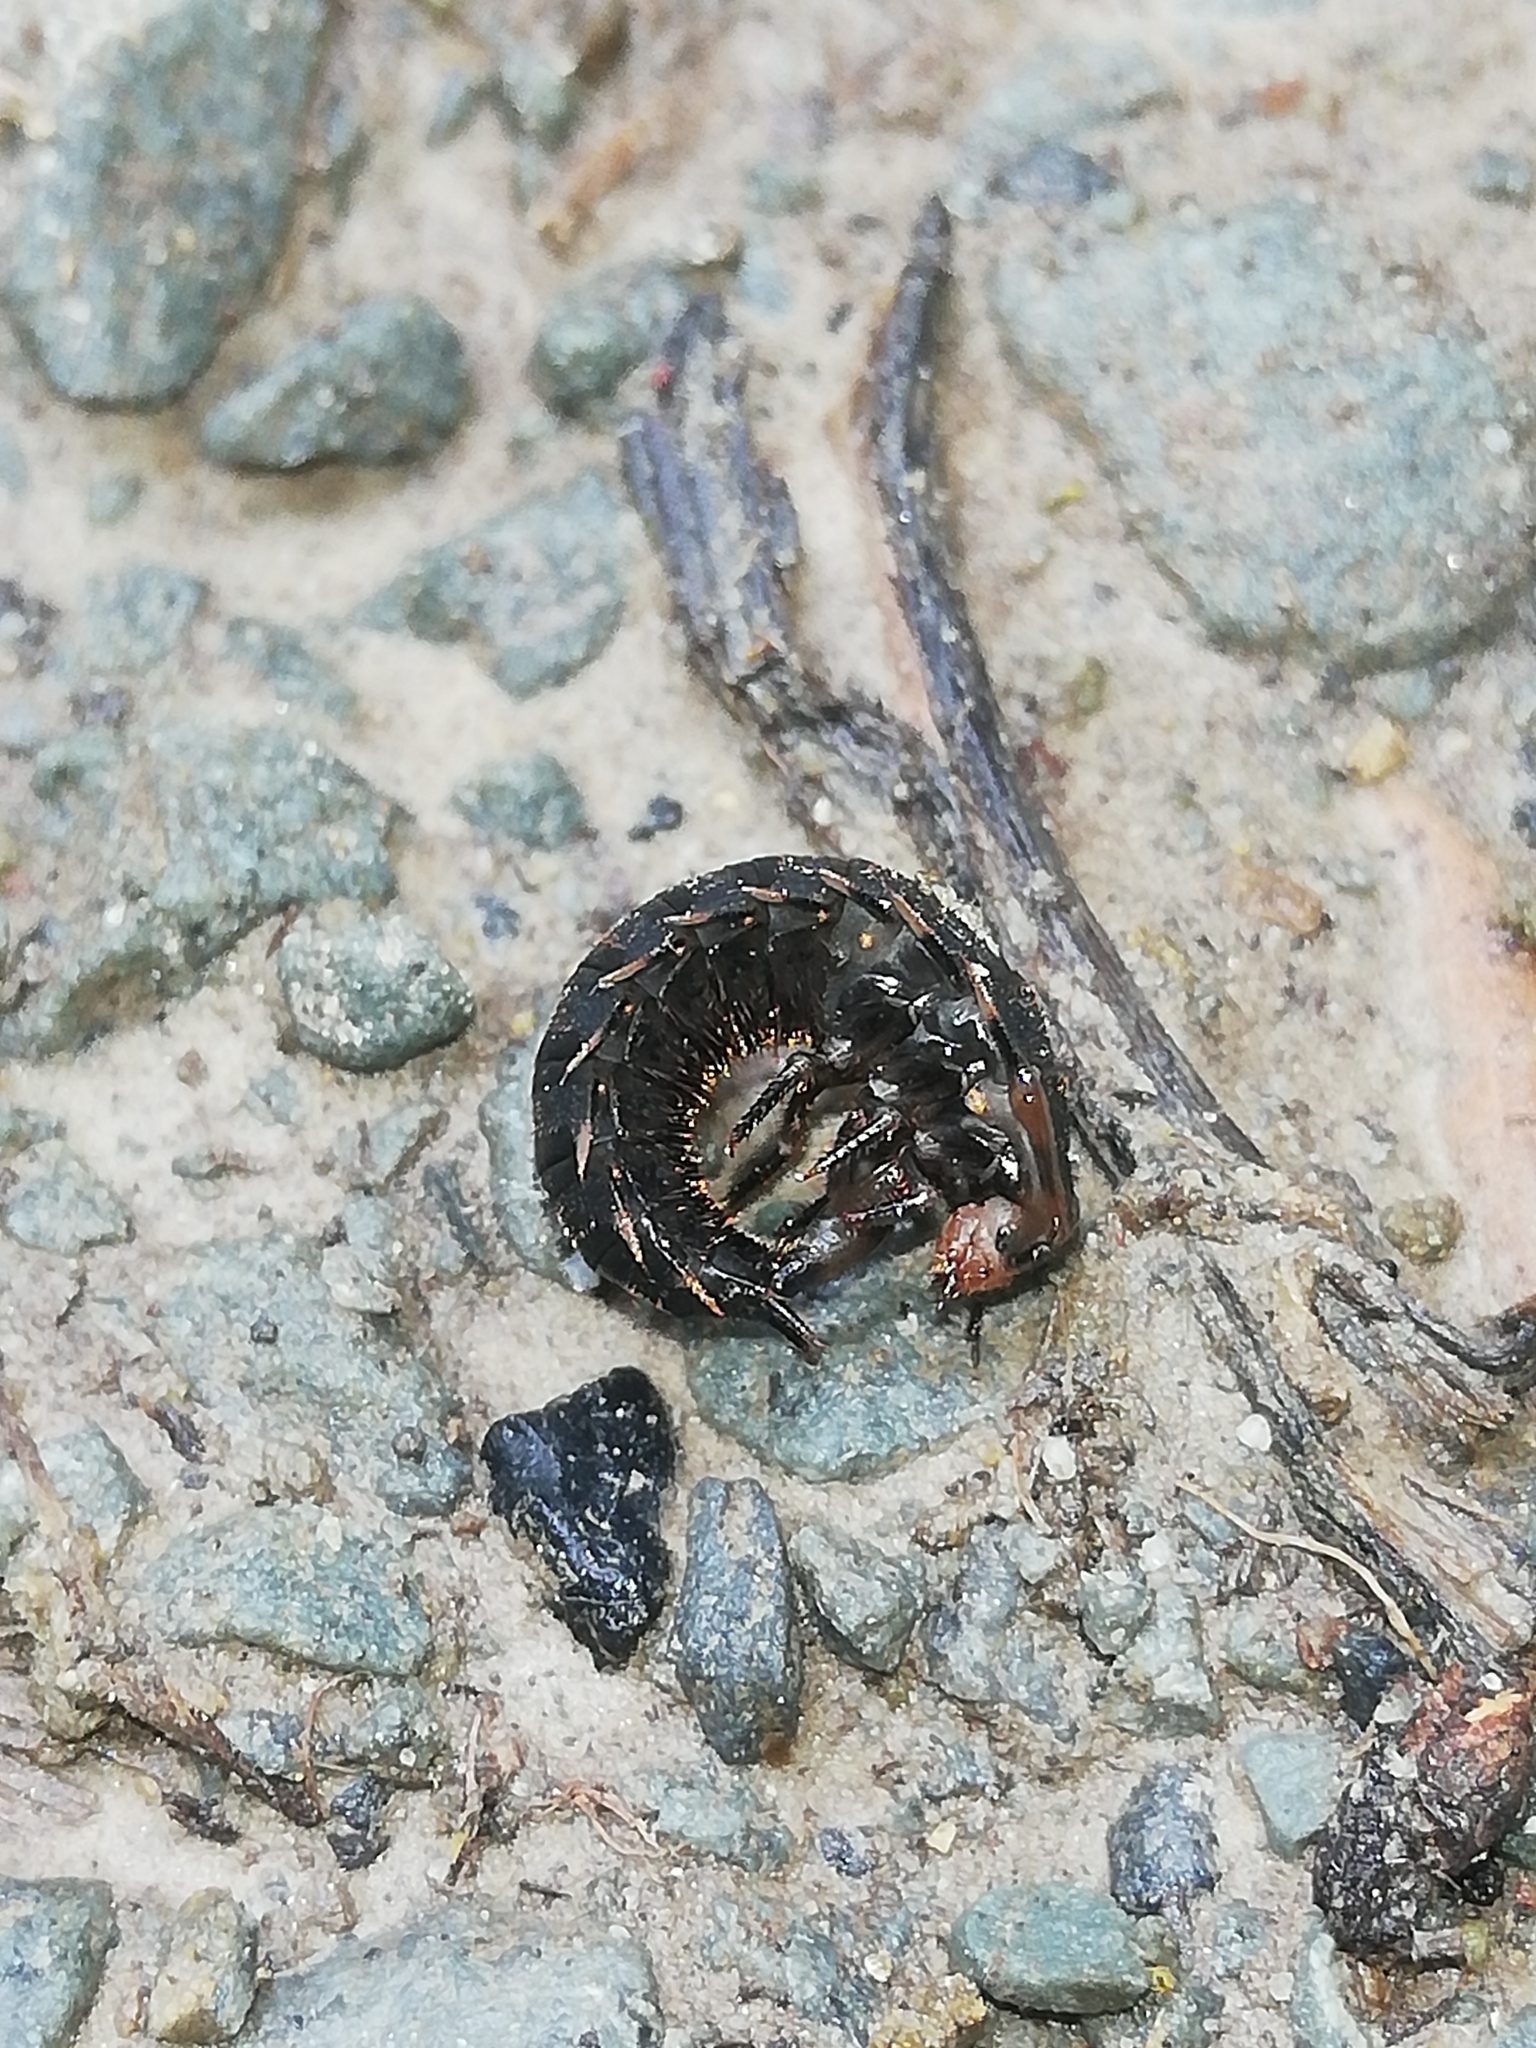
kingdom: Animalia
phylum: Arthropoda
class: Insecta
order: Coleoptera
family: Staphylinidae
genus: Oiceoptoma
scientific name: Oiceoptoma thoracicum
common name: Red-breasted carrion beetle
